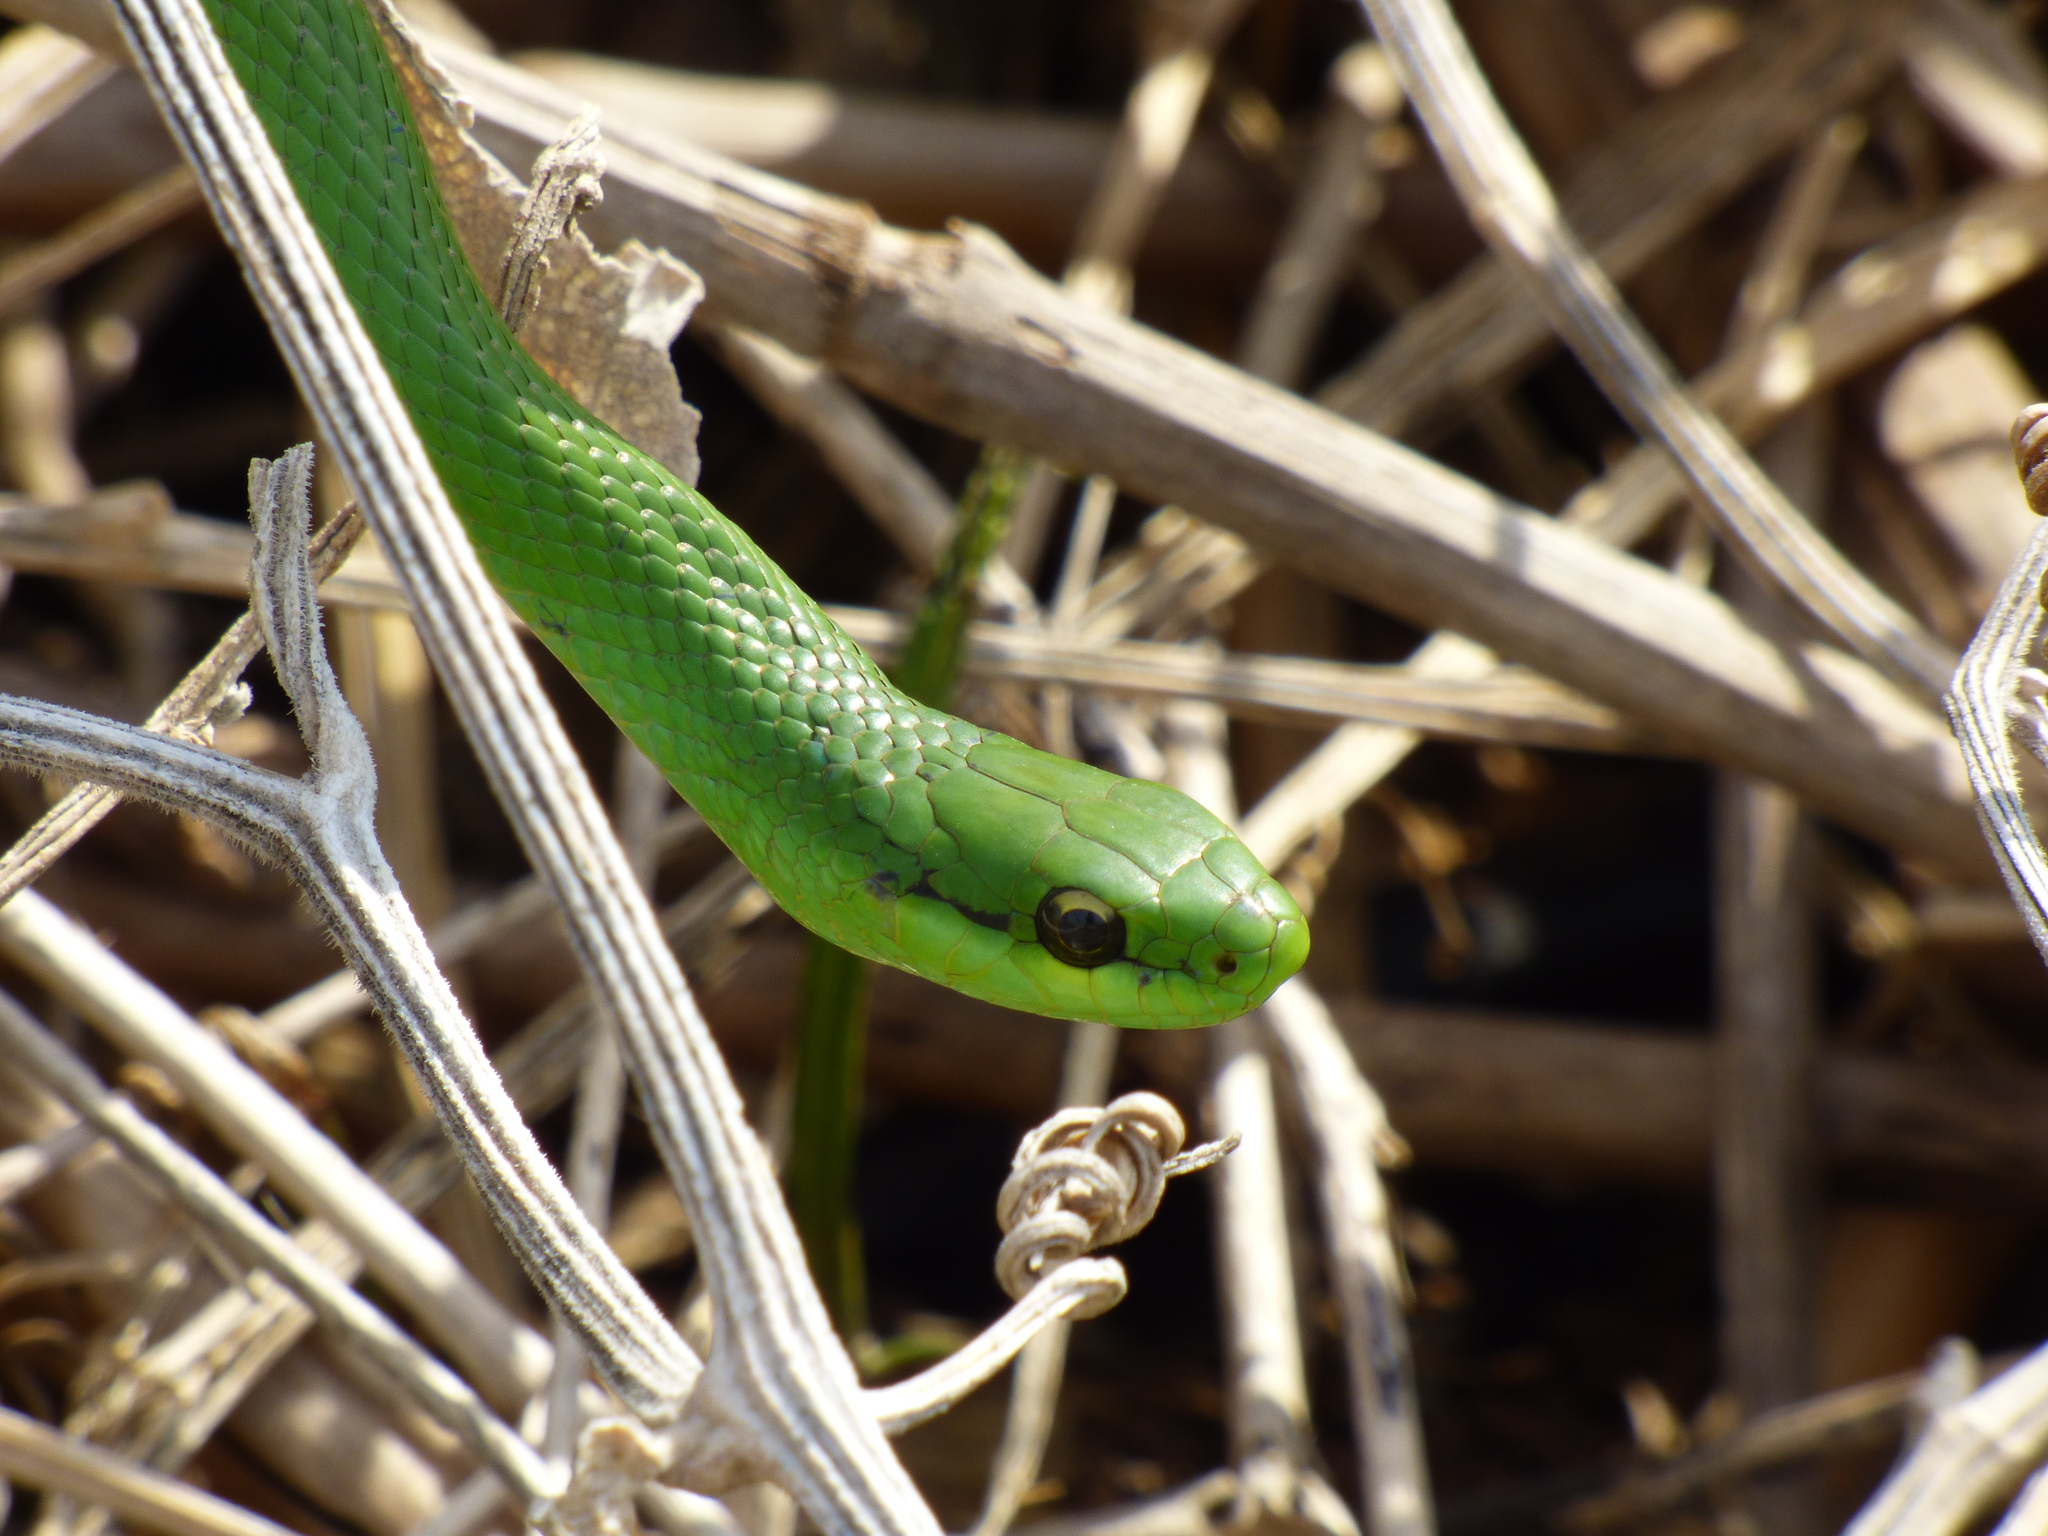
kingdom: Animalia
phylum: Chordata
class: Squamata
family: Colubridae
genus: Philodryas
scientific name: Philodryas olfersii
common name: Lichtenstein's green racer
